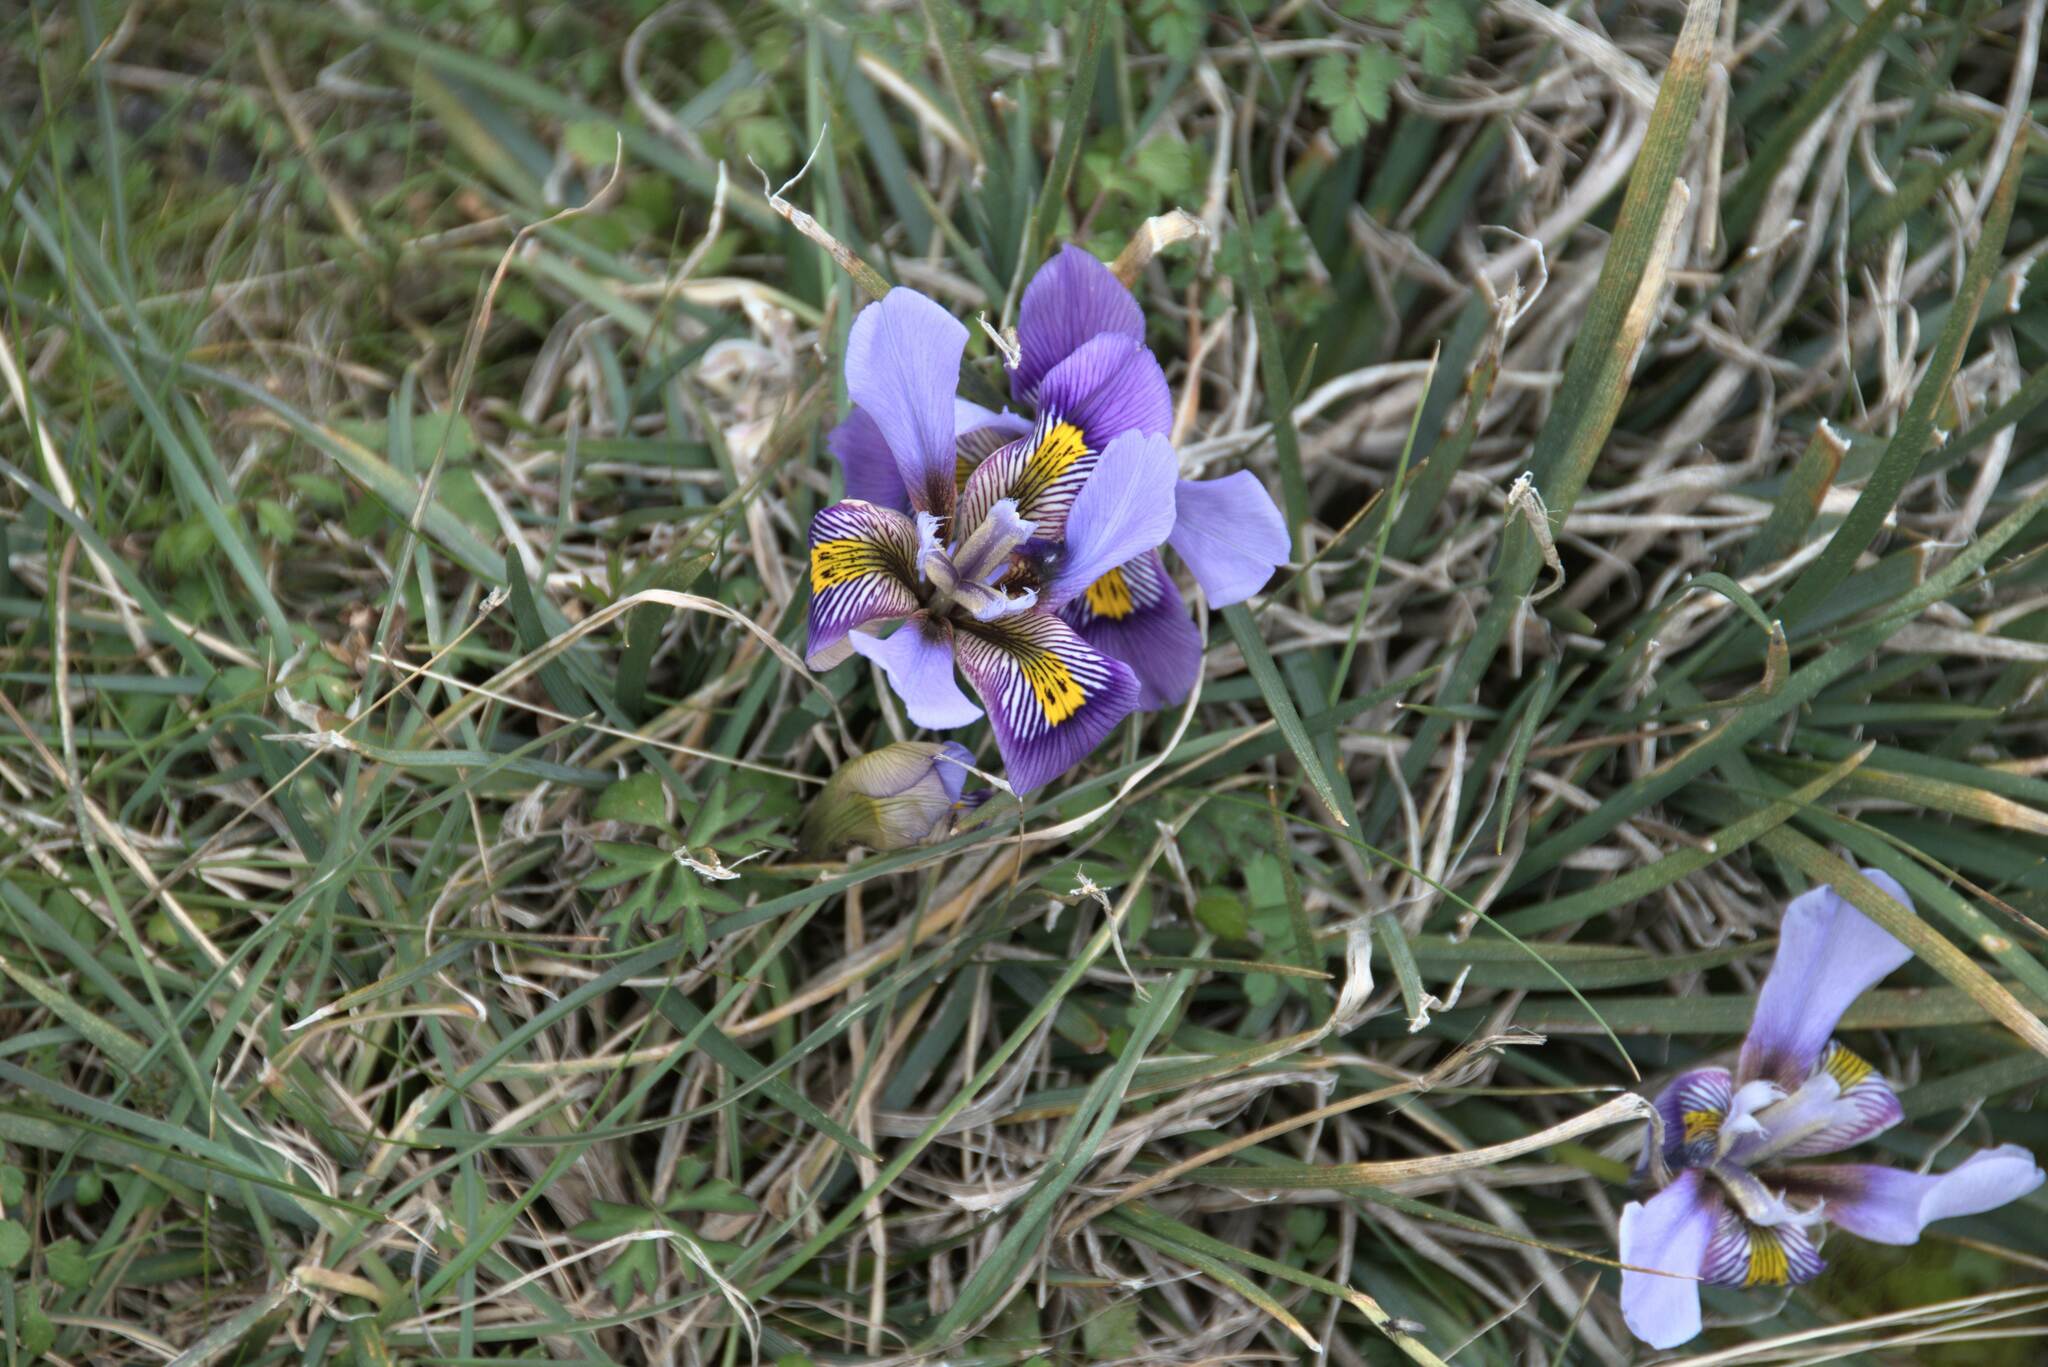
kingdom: Plantae
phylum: Tracheophyta
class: Liliopsida
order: Asparagales
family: Iridaceae
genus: Iris
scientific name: Iris unguicularis
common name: Algerian iris
